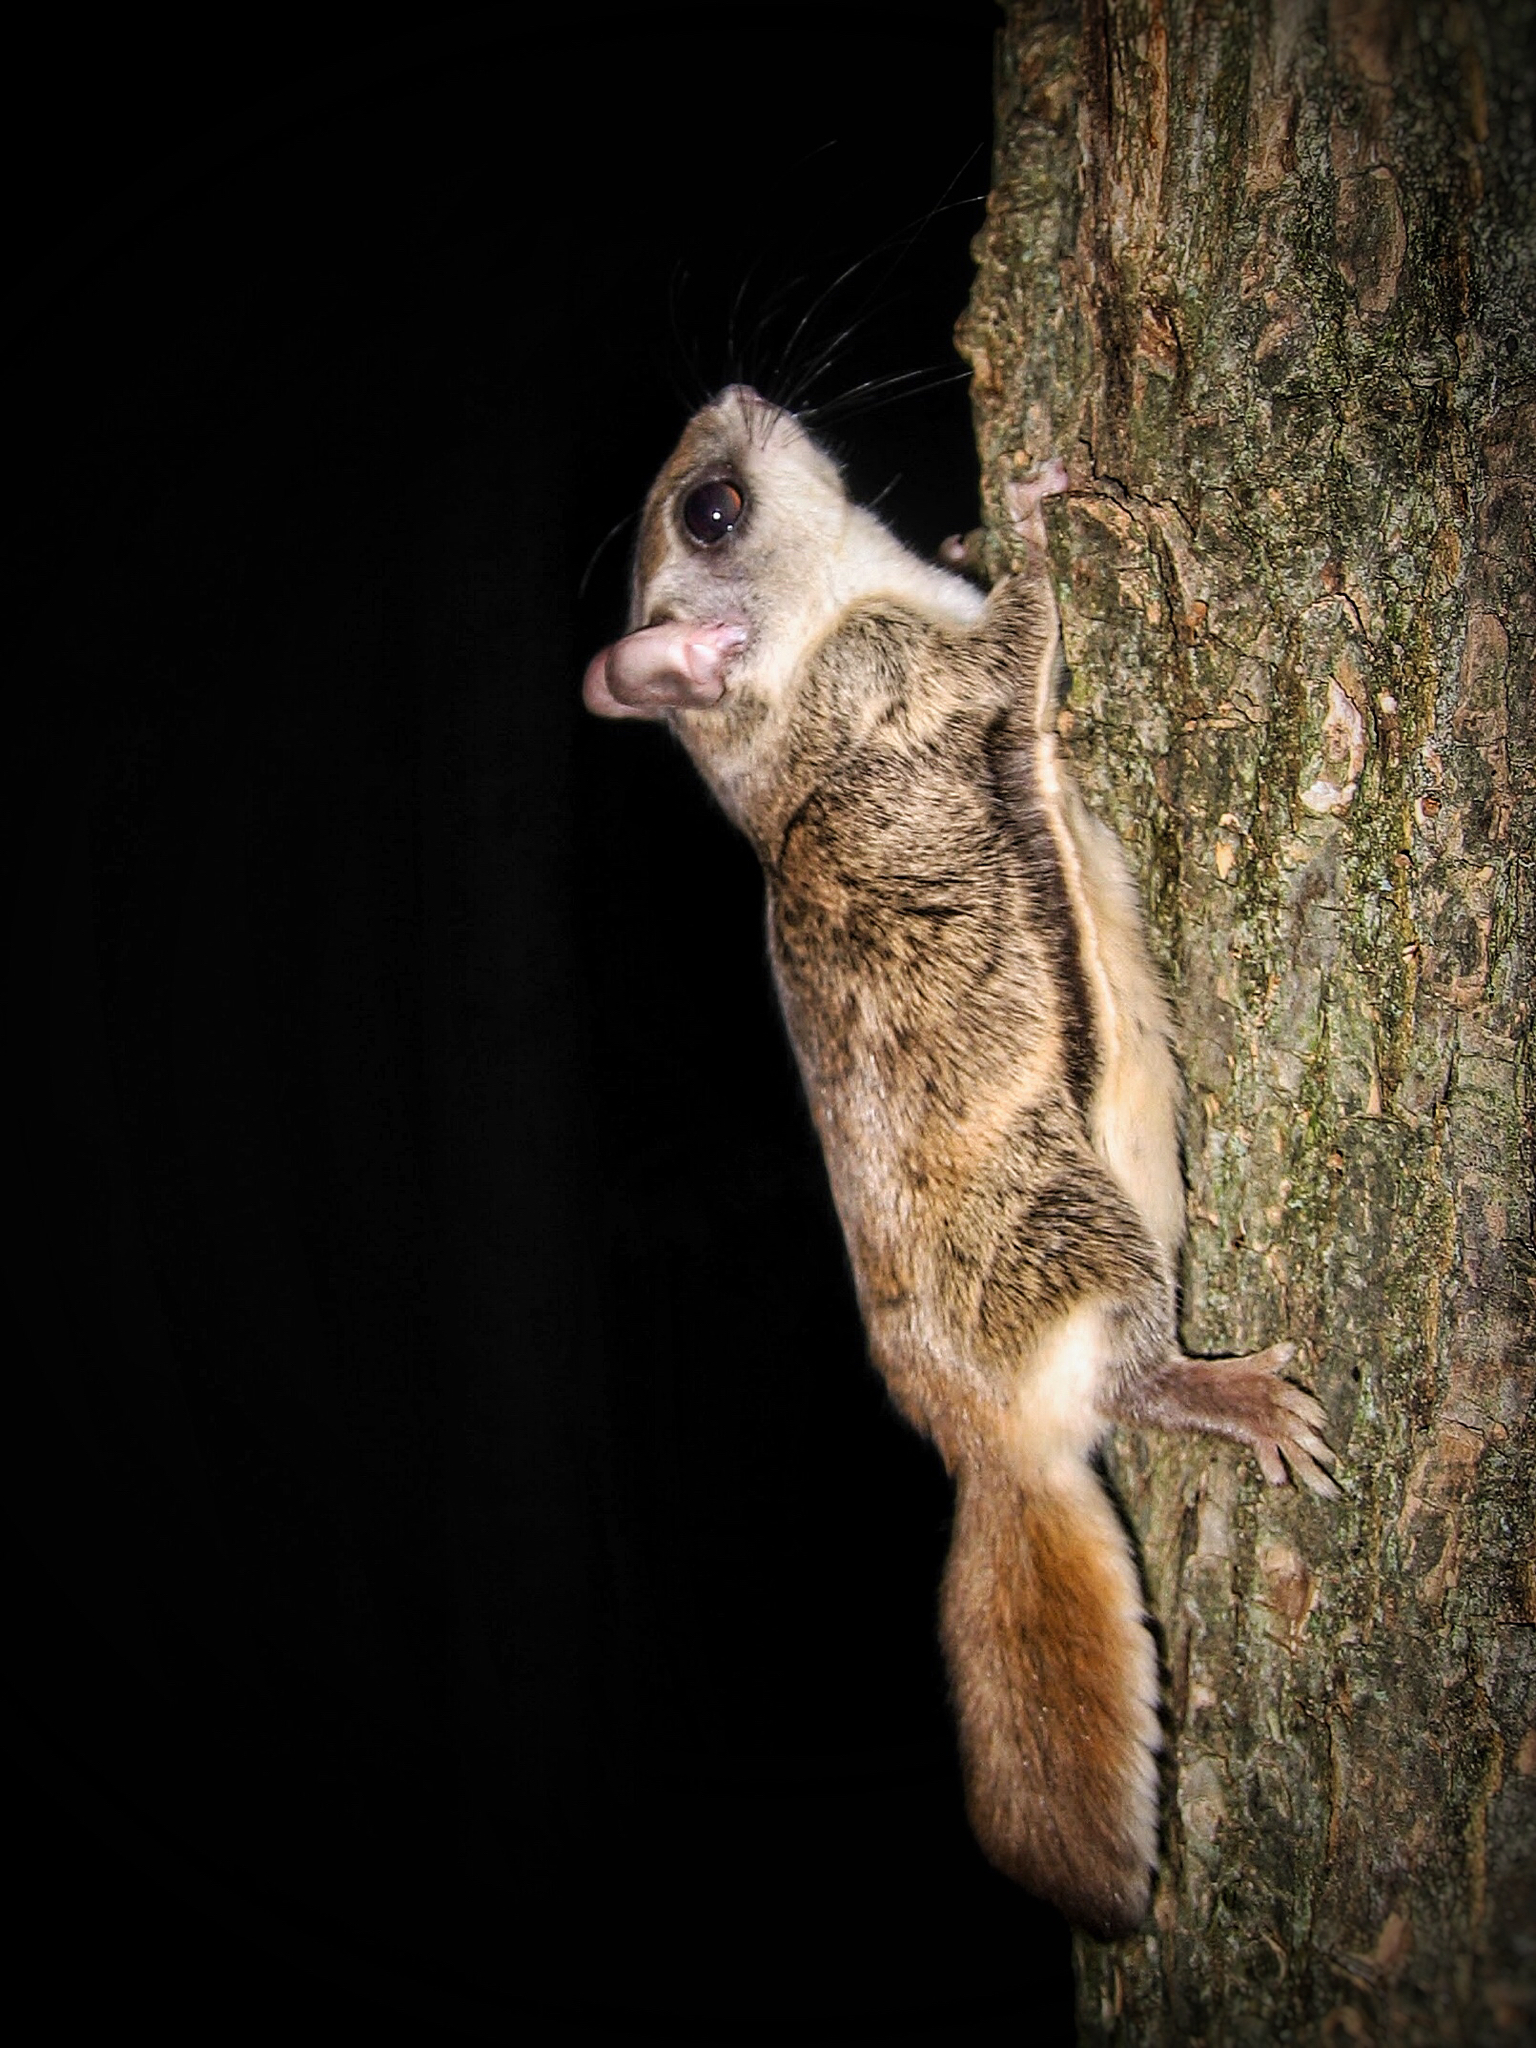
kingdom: Animalia
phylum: Chordata
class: Mammalia
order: Rodentia
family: Sciuridae
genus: Glaucomys
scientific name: Glaucomys sabrinus
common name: Northern flying squirrel
